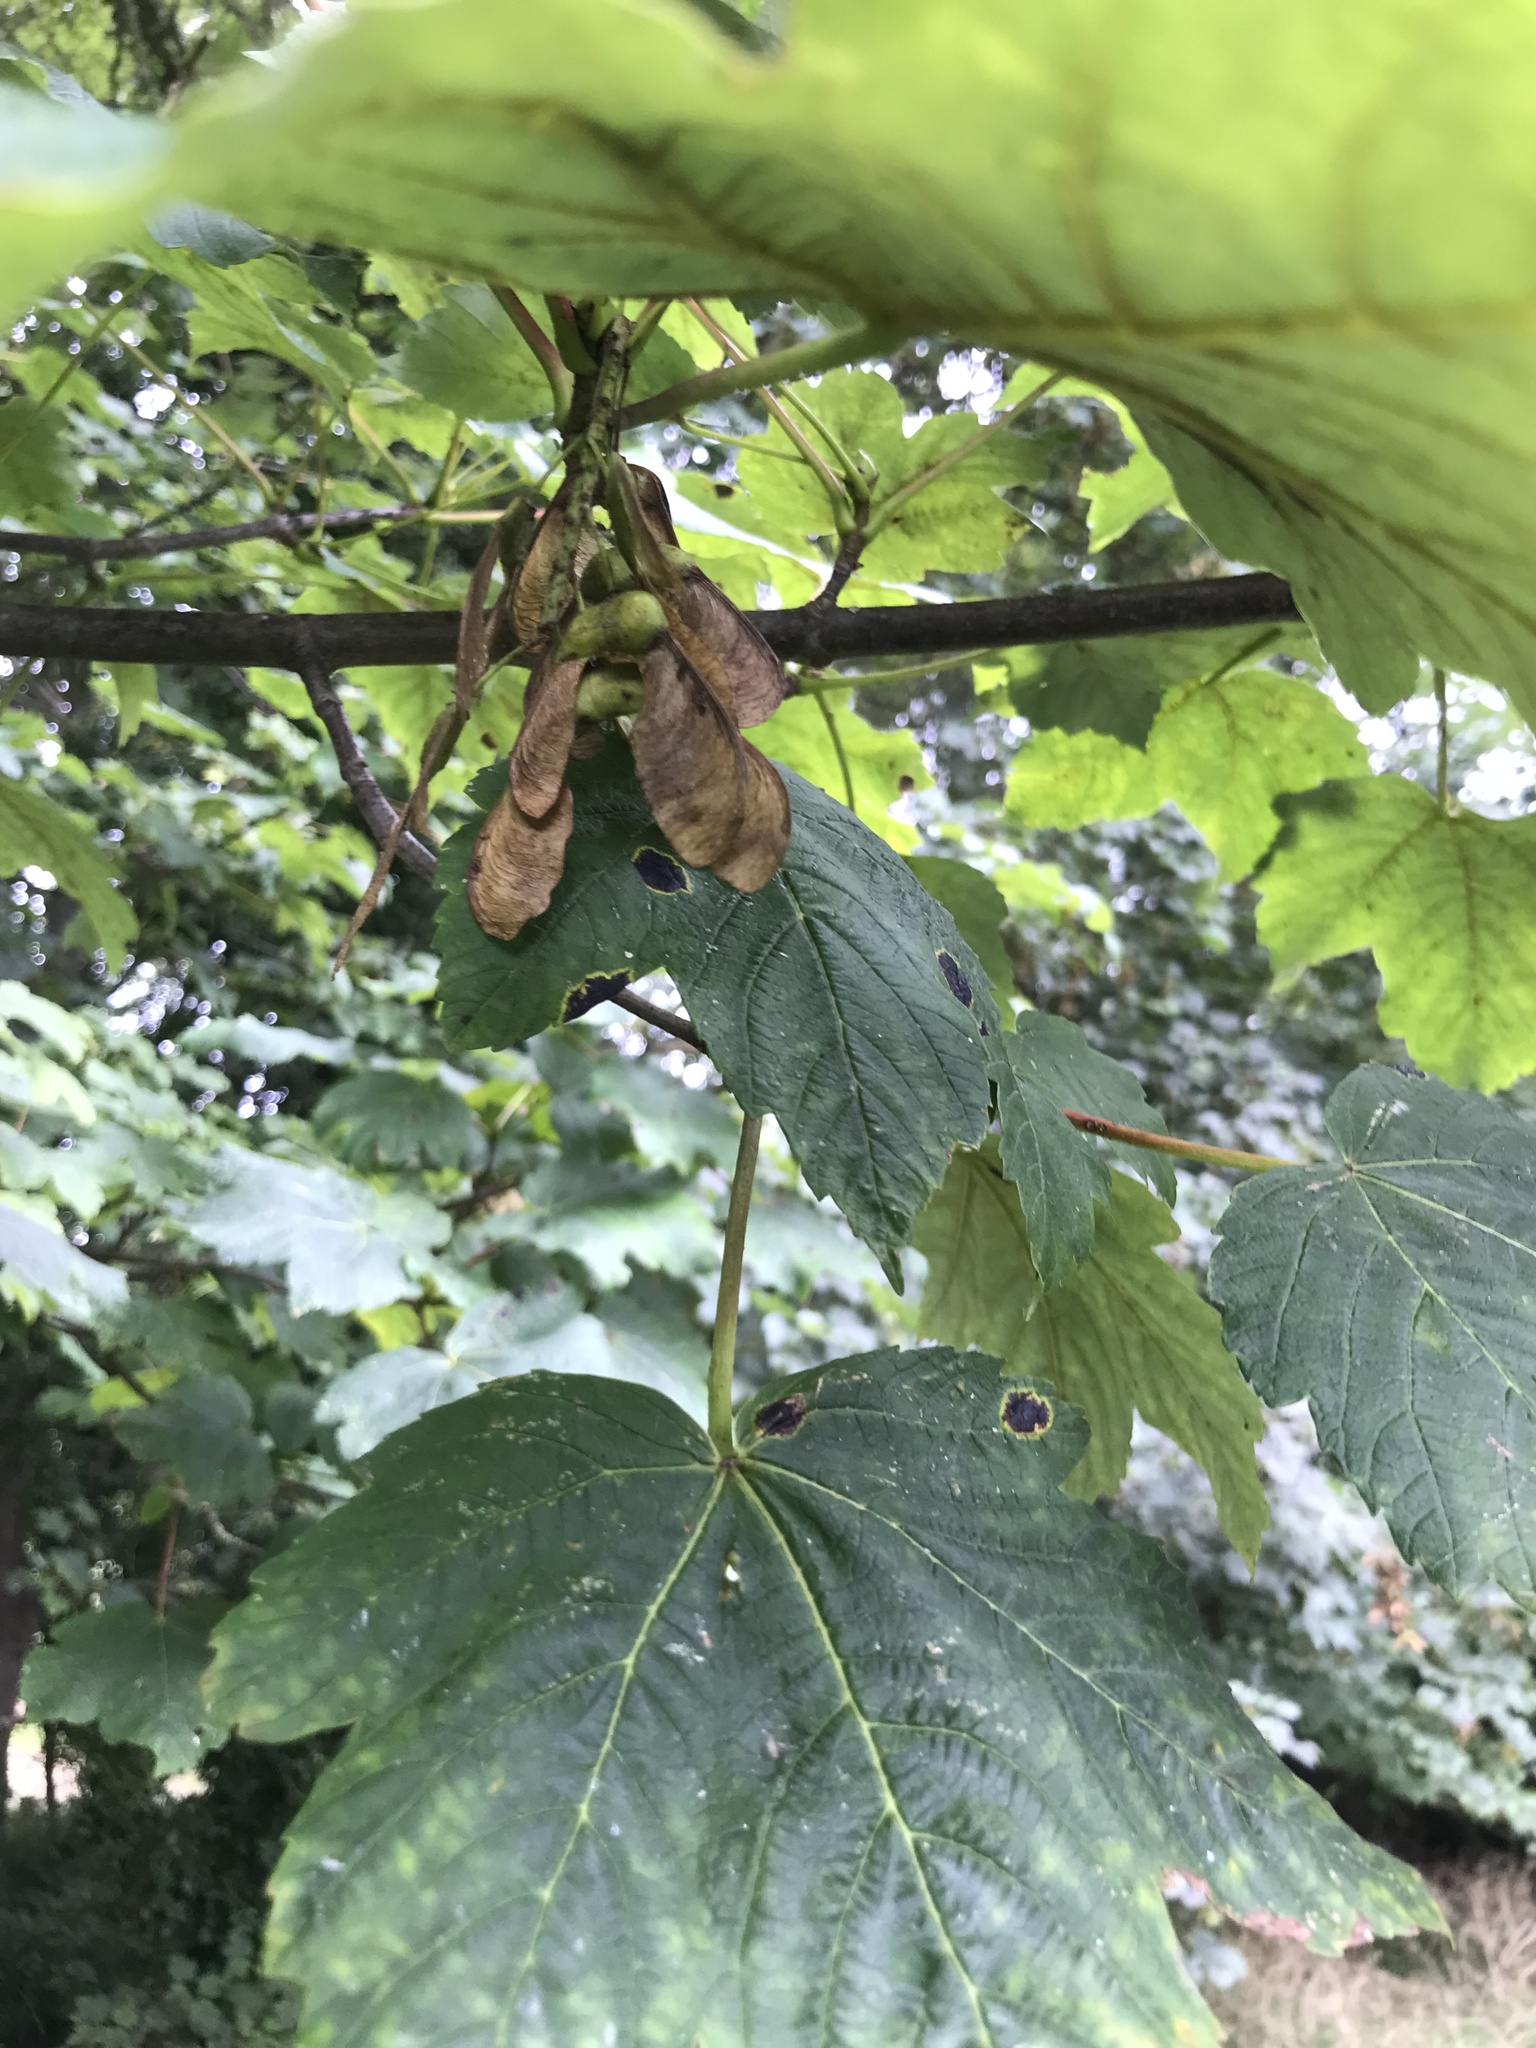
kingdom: Plantae
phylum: Tracheophyta
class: Magnoliopsida
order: Sapindales
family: Sapindaceae
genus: Acer
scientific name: Acer pseudoplatanus
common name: Sycamore
